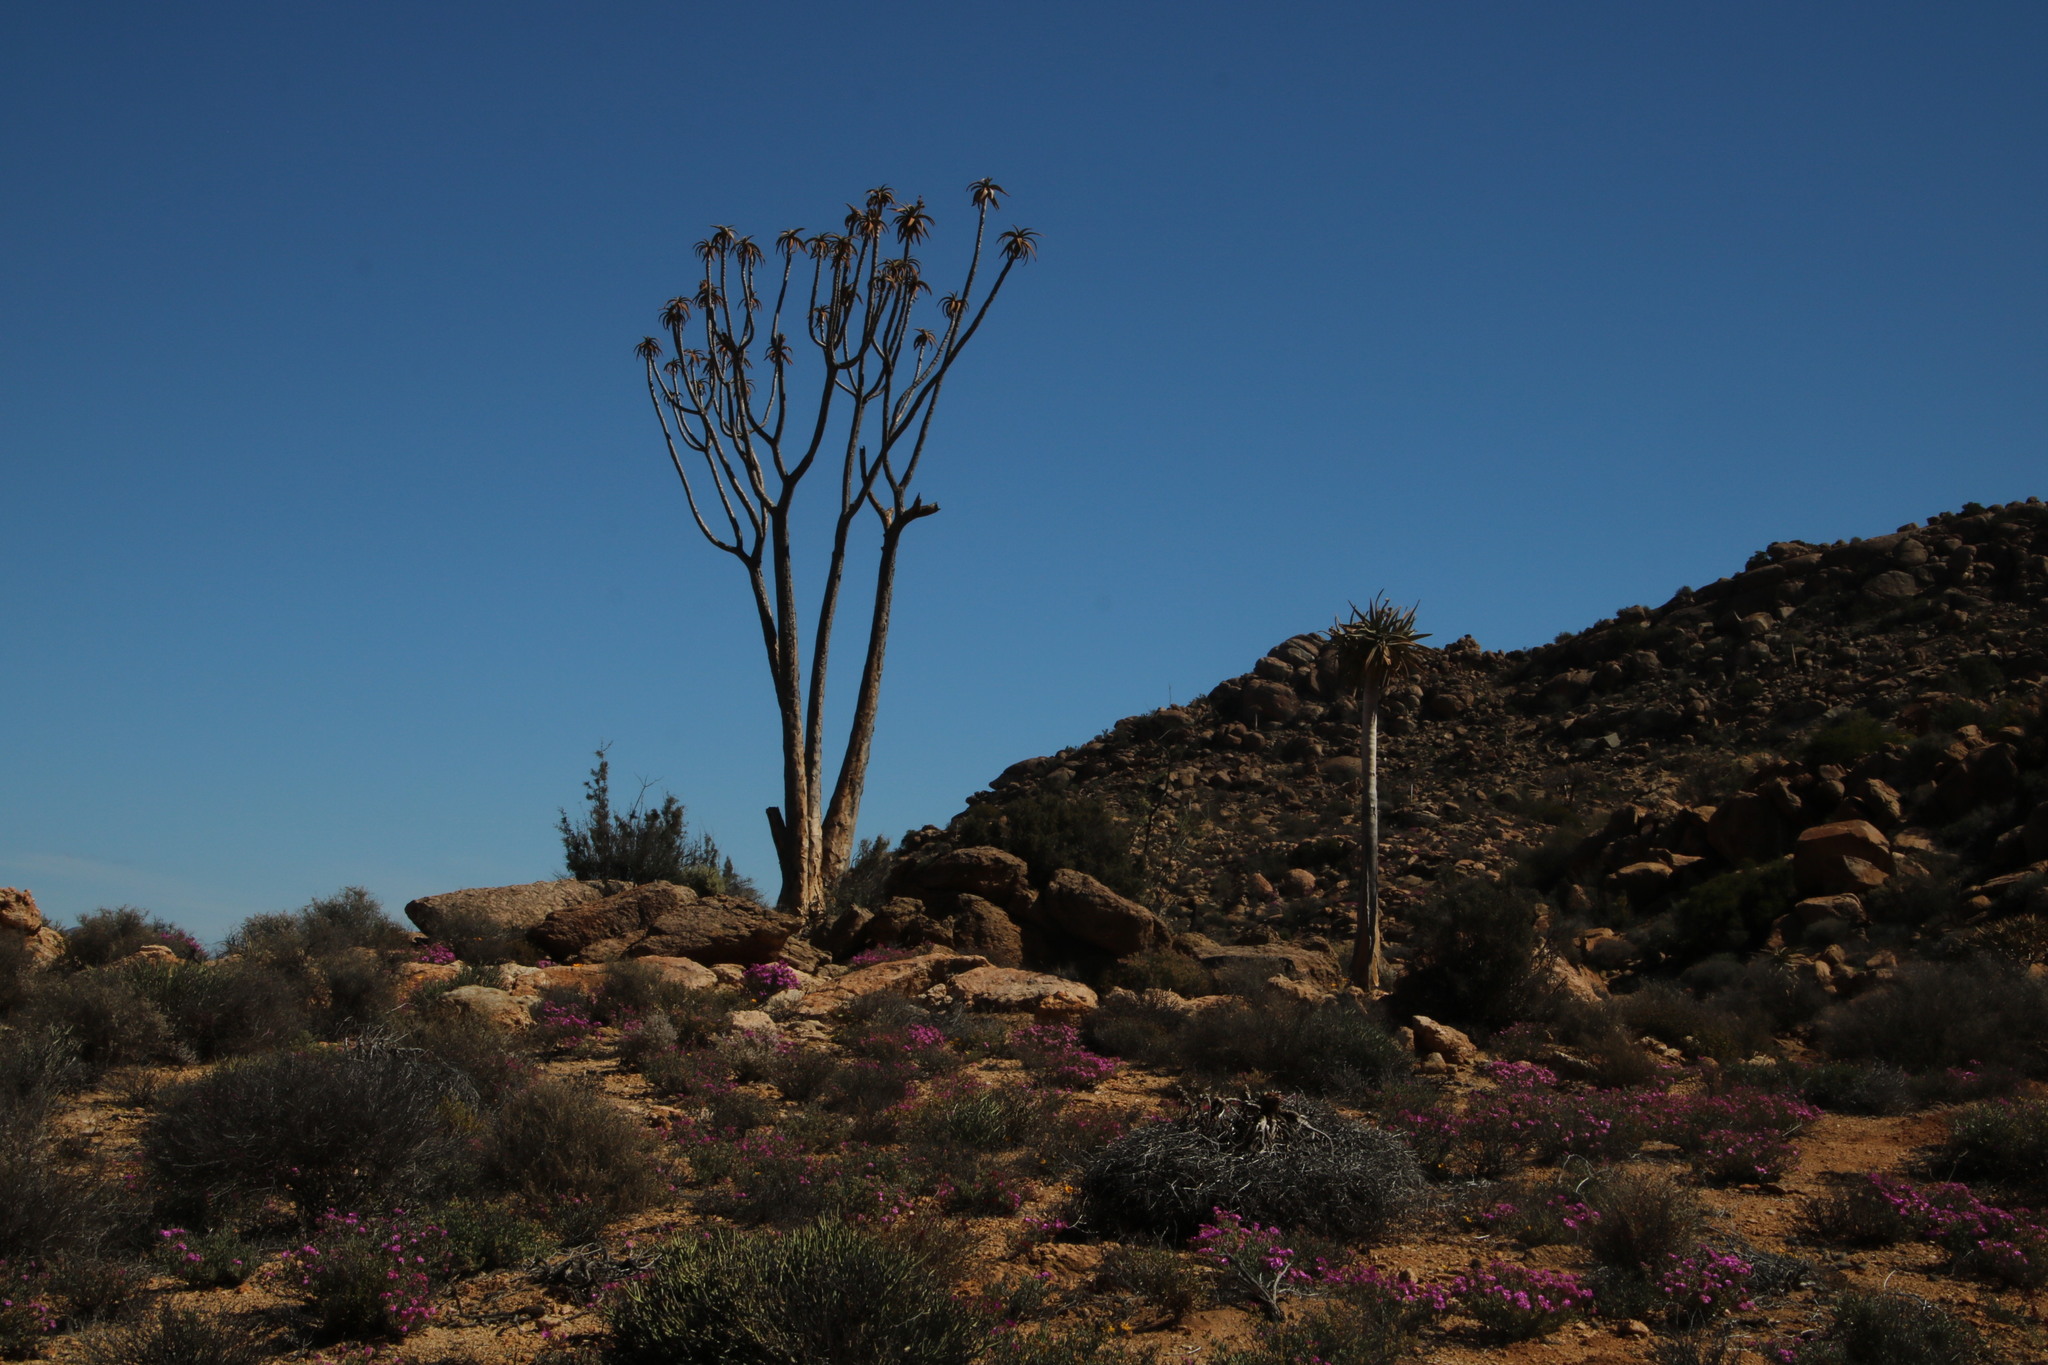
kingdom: Plantae
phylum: Tracheophyta
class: Liliopsida
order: Asparagales
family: Asphodelaceae
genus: Aloidendron
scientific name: Aloidendron dichotomum
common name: Quiver tree
